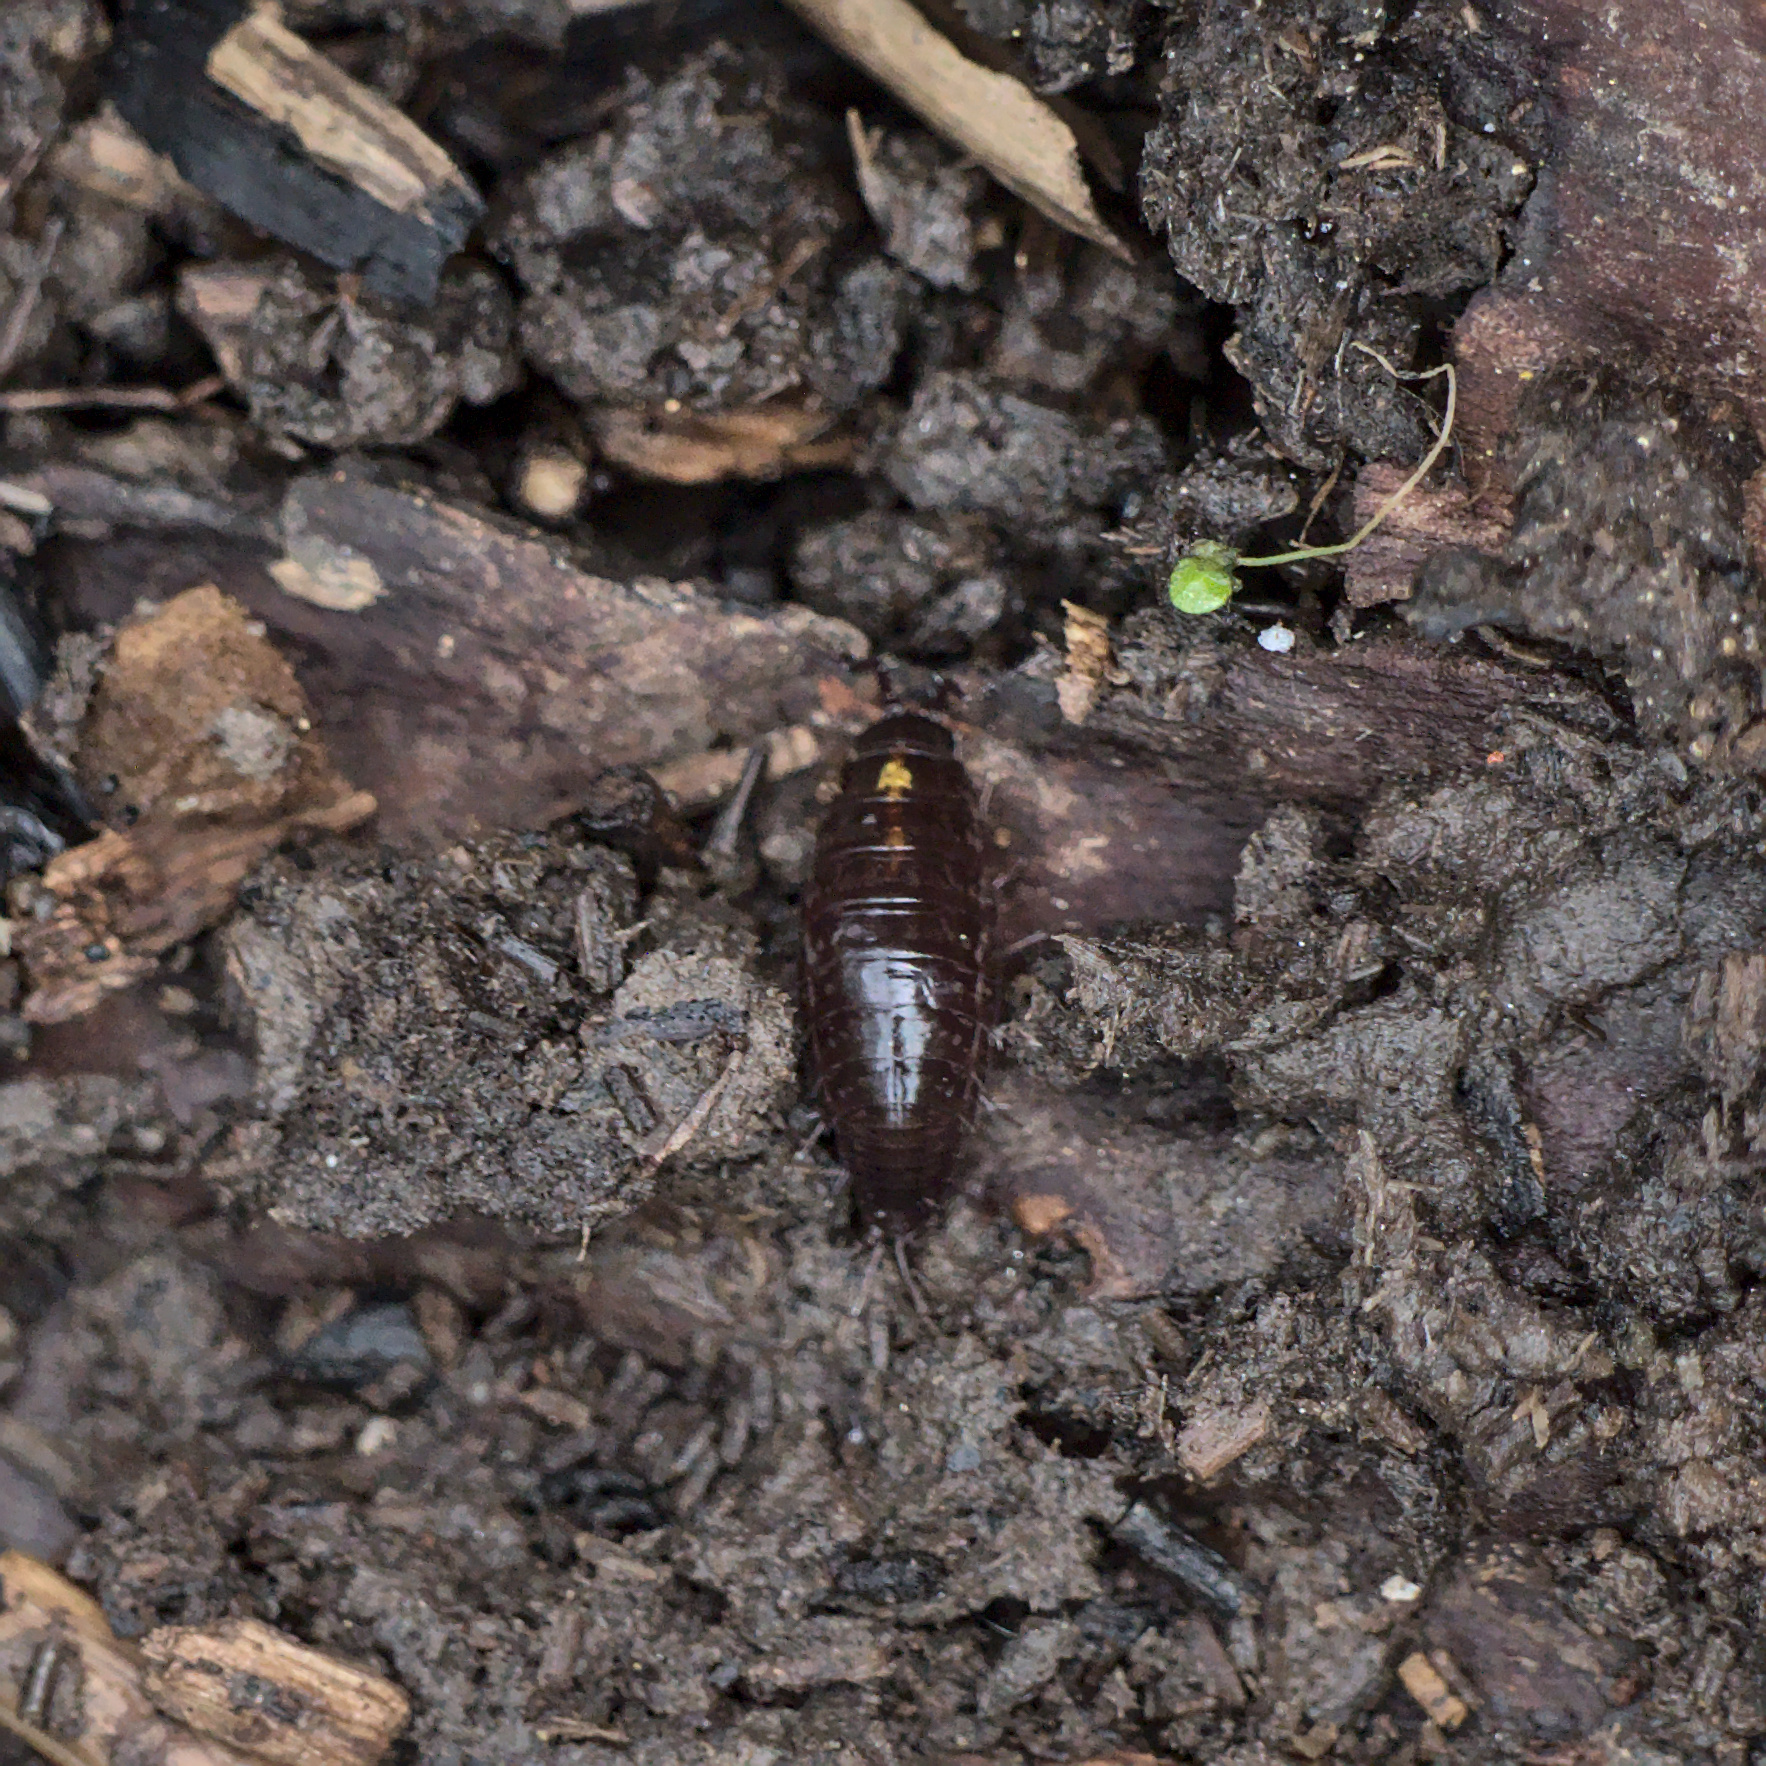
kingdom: Animalia
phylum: Arthropoda
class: Malacostraca
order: Isopoda
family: Ligiidae
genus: Ligidium
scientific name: Ligidium gracile
